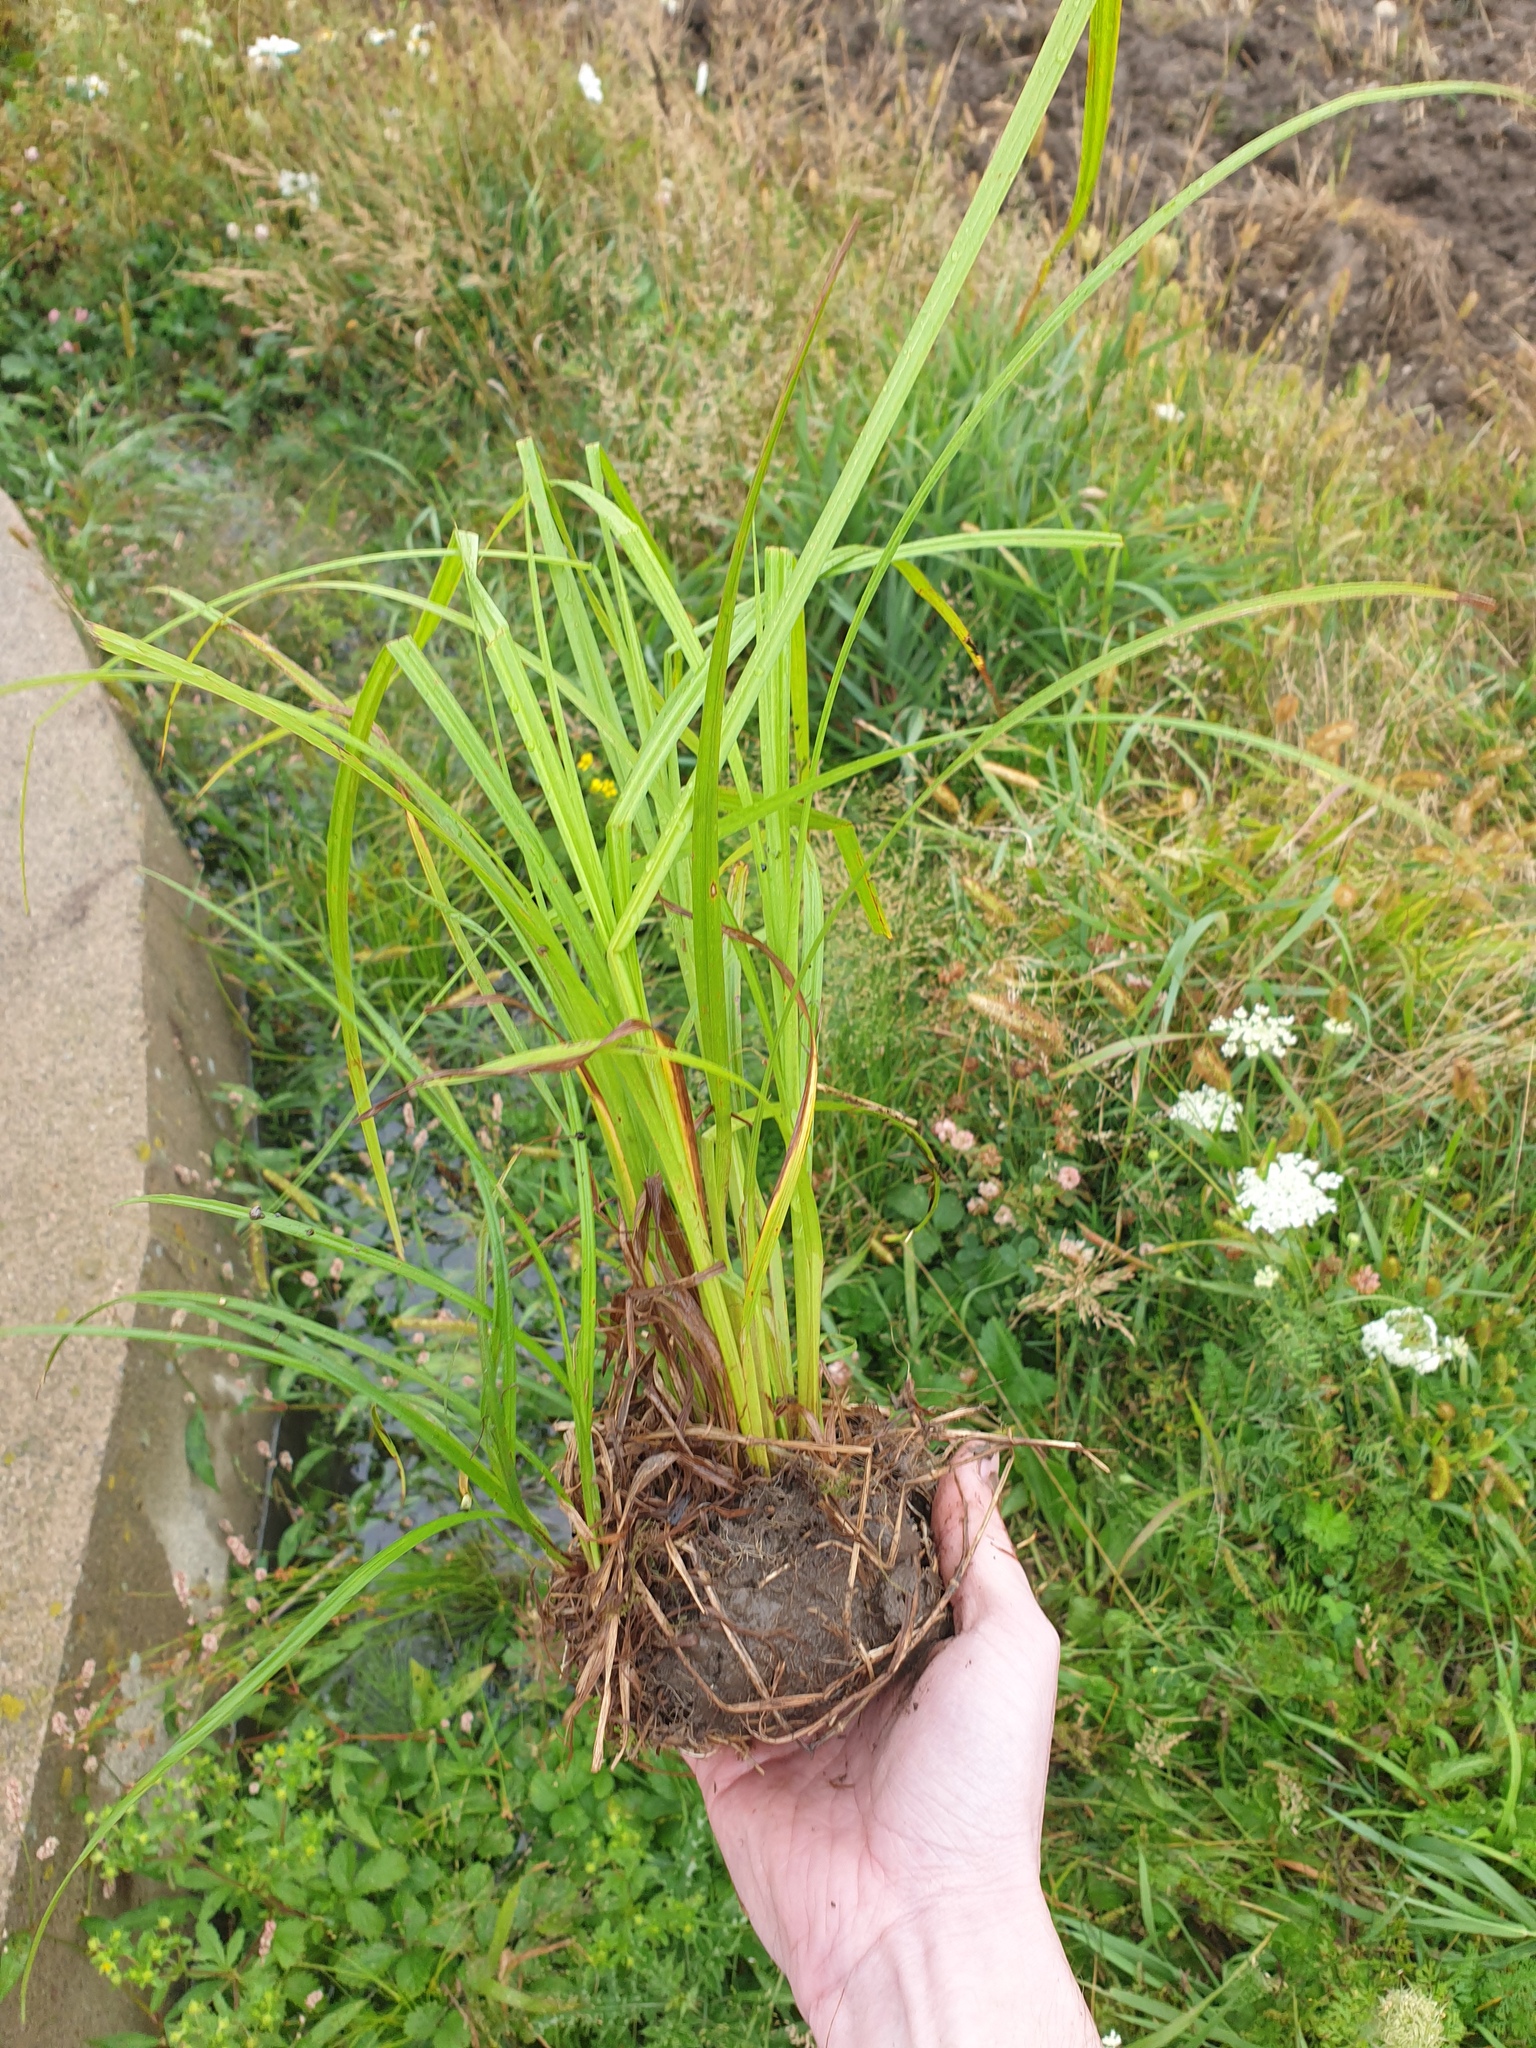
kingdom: Plantae
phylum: Tracheophyta
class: Liliopsida
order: Poales
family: Cyperaceae
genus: Carex
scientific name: Carex retrorsa
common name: Knot-sheath sedge
